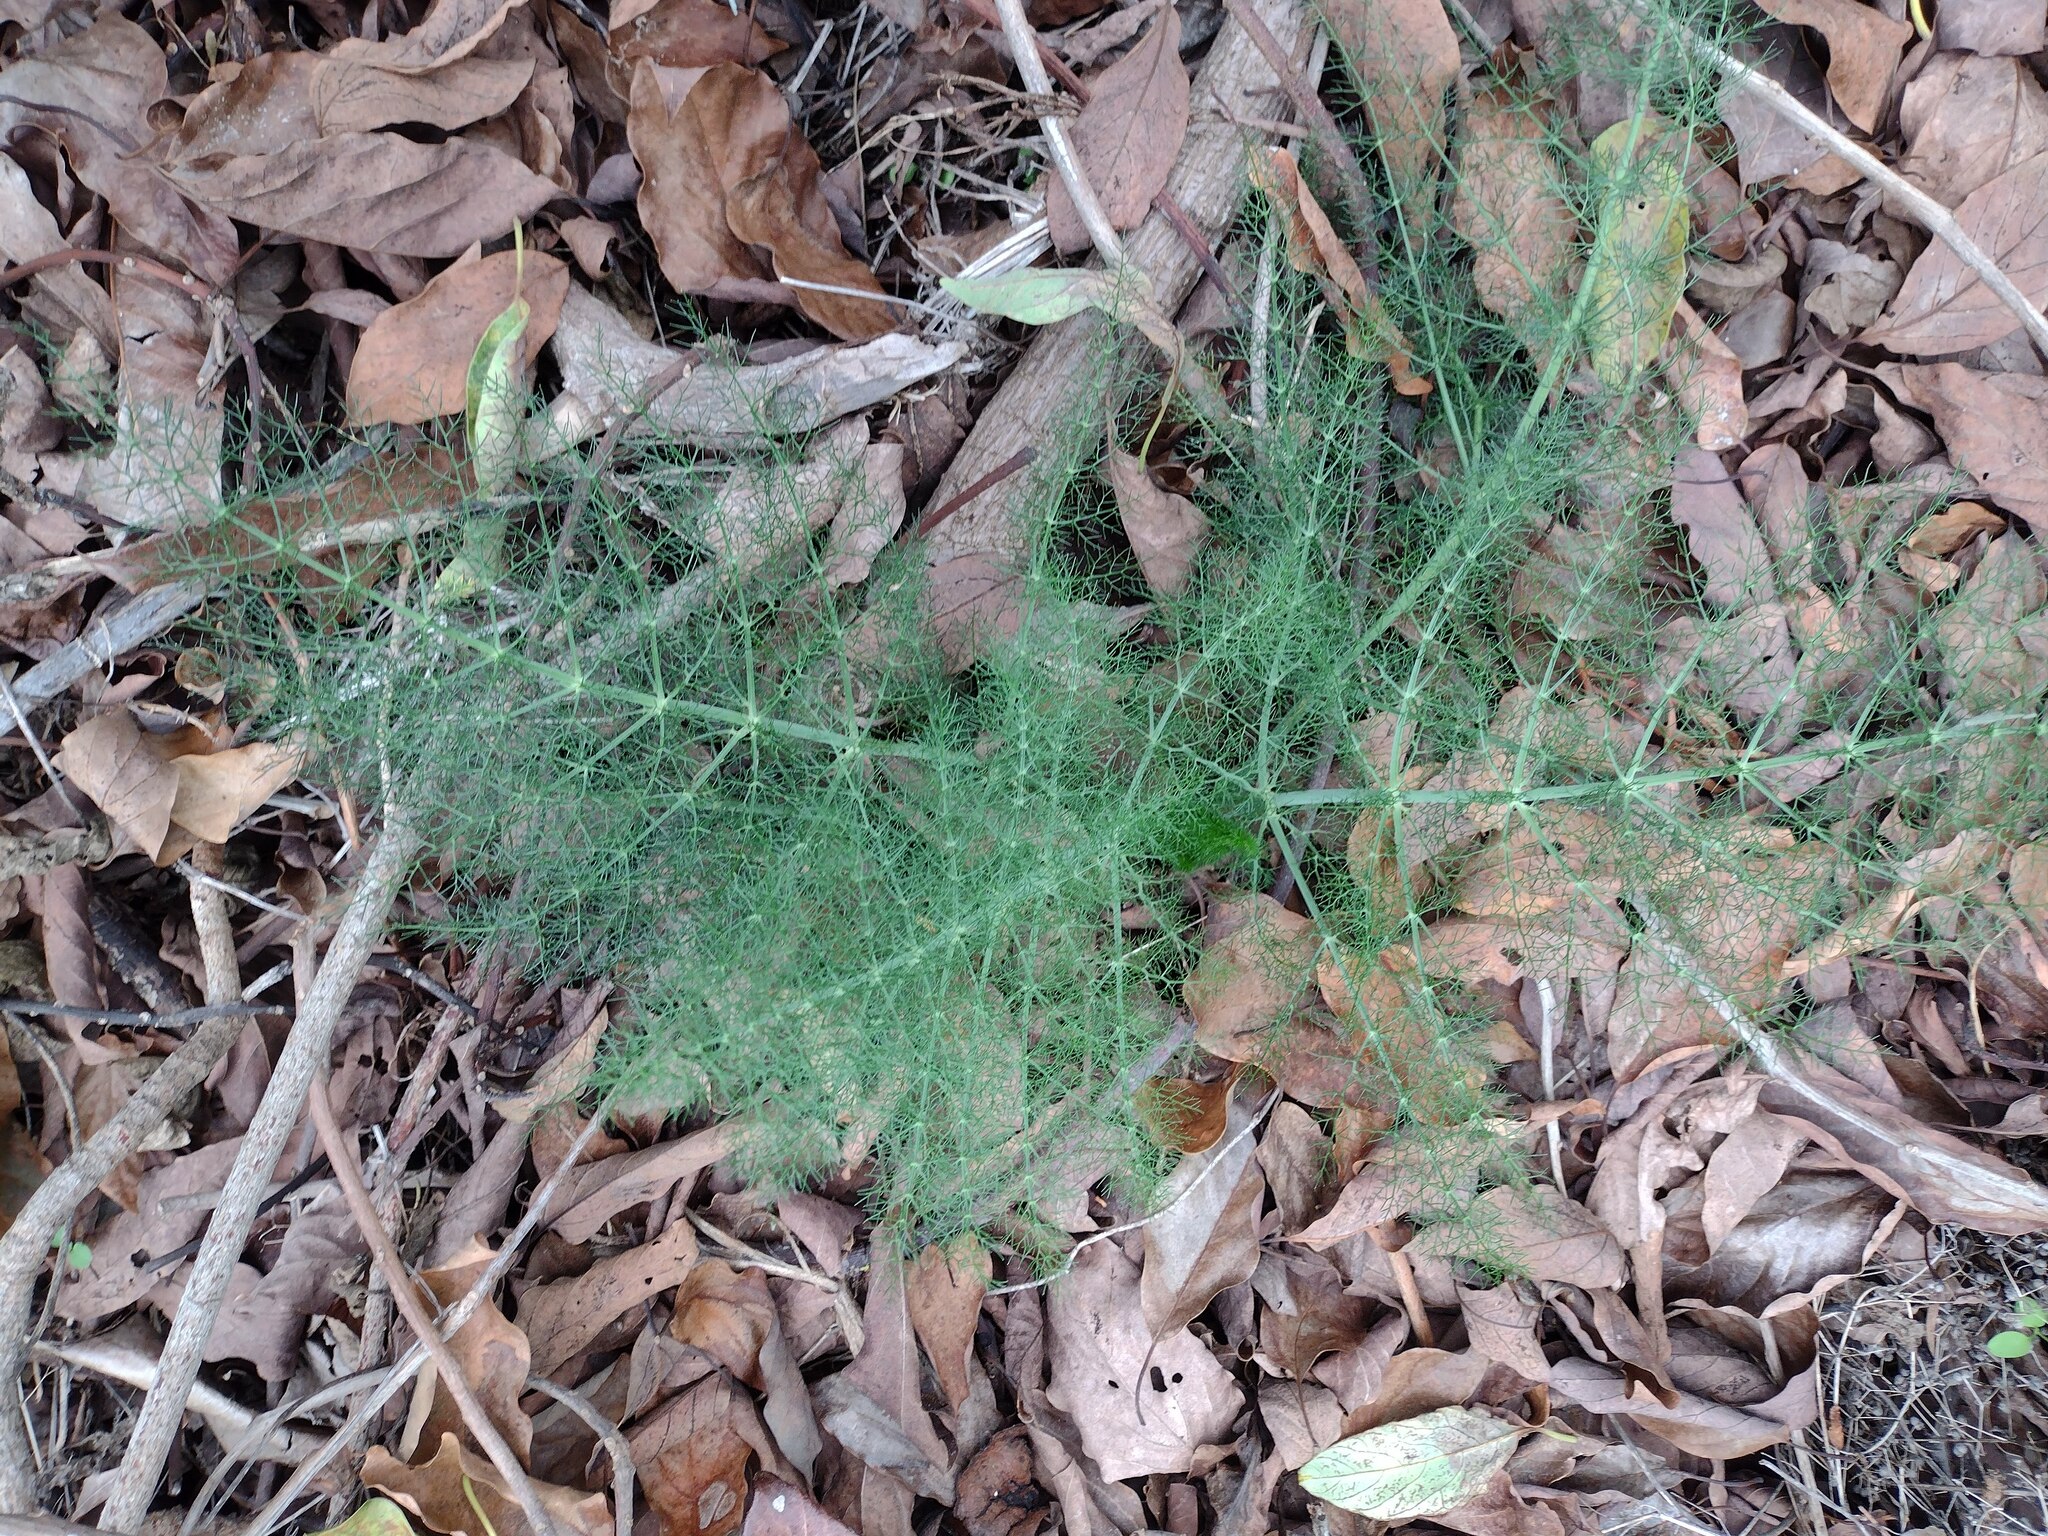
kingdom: Plantae
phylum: Tracheophyta
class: Magnoliopsida
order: Apiales
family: Apiaceae
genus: Foeniculum
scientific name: Foeniculum vulgare
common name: Fennel
